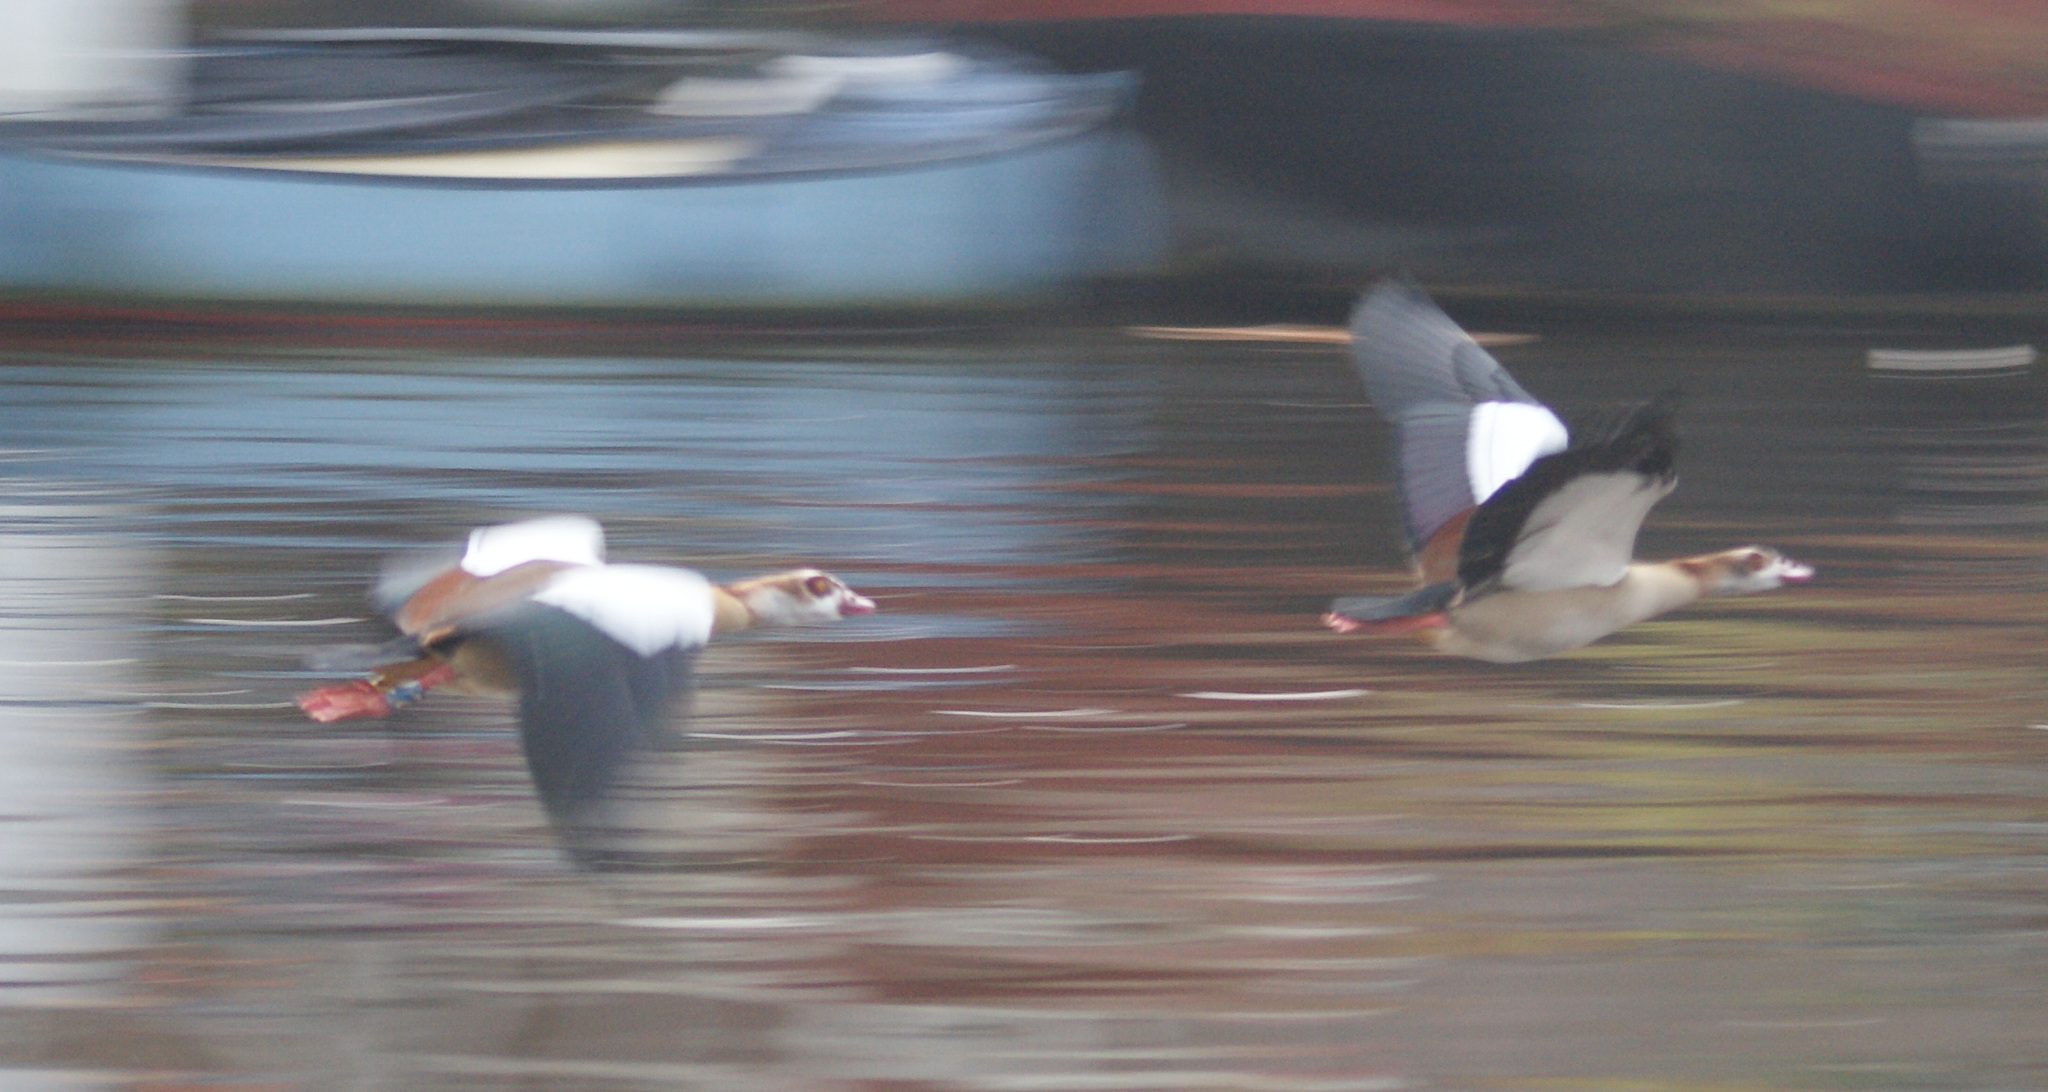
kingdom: Animalia
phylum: Chordata
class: Aves
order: Anseriformes
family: Anatidae
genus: Alopochen
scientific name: Alopochen aegyptiaca
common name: Egyptian goose
